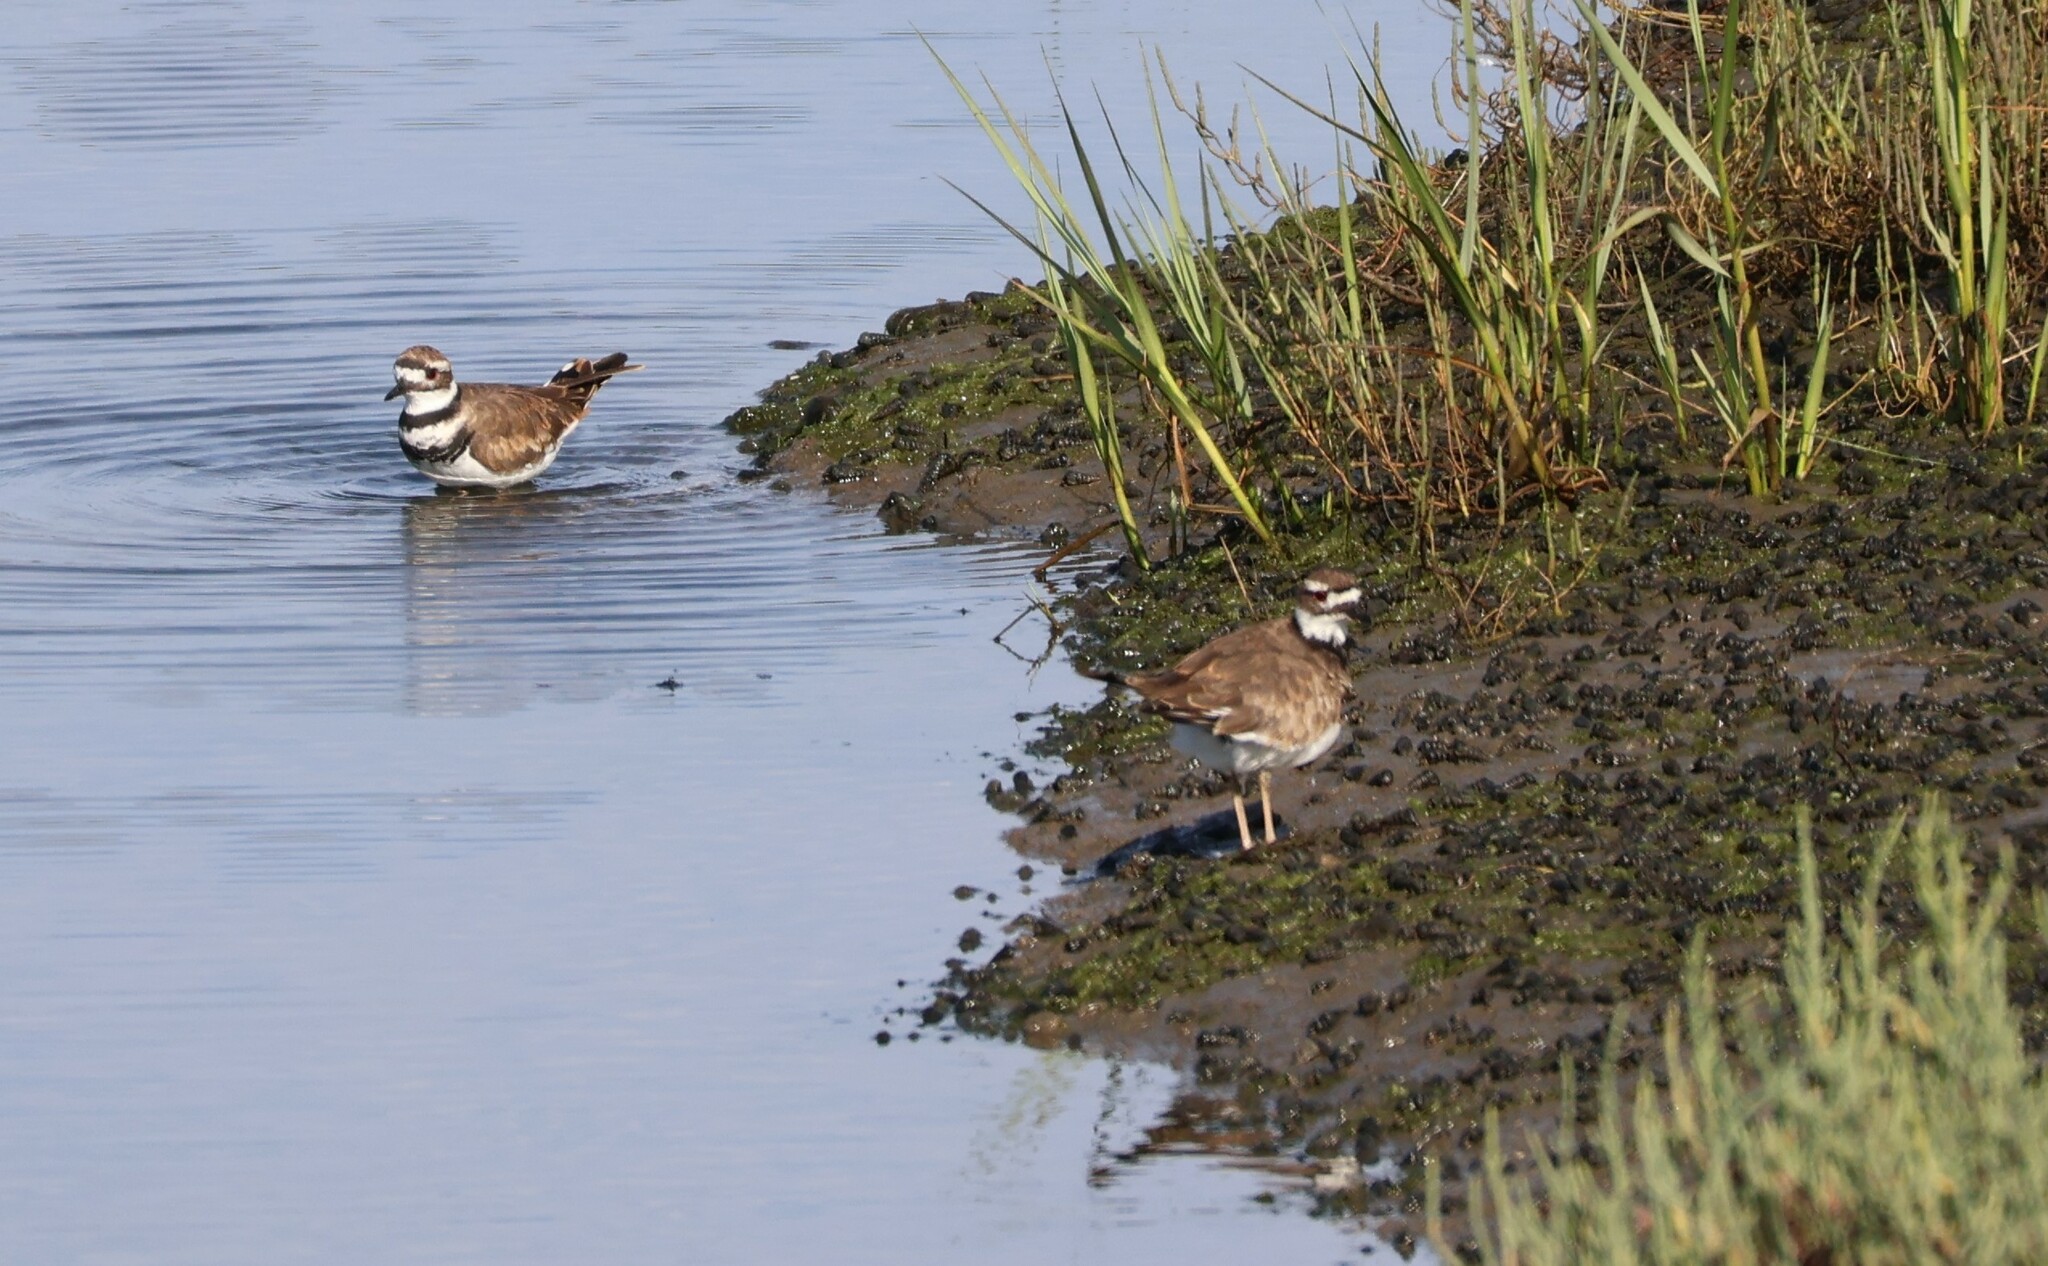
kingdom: Animalia
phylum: Chordata
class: Aves
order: Charadriiformes
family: Charadriidae
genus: Charadrius
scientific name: Charadrius vociferus
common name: Killdeer
